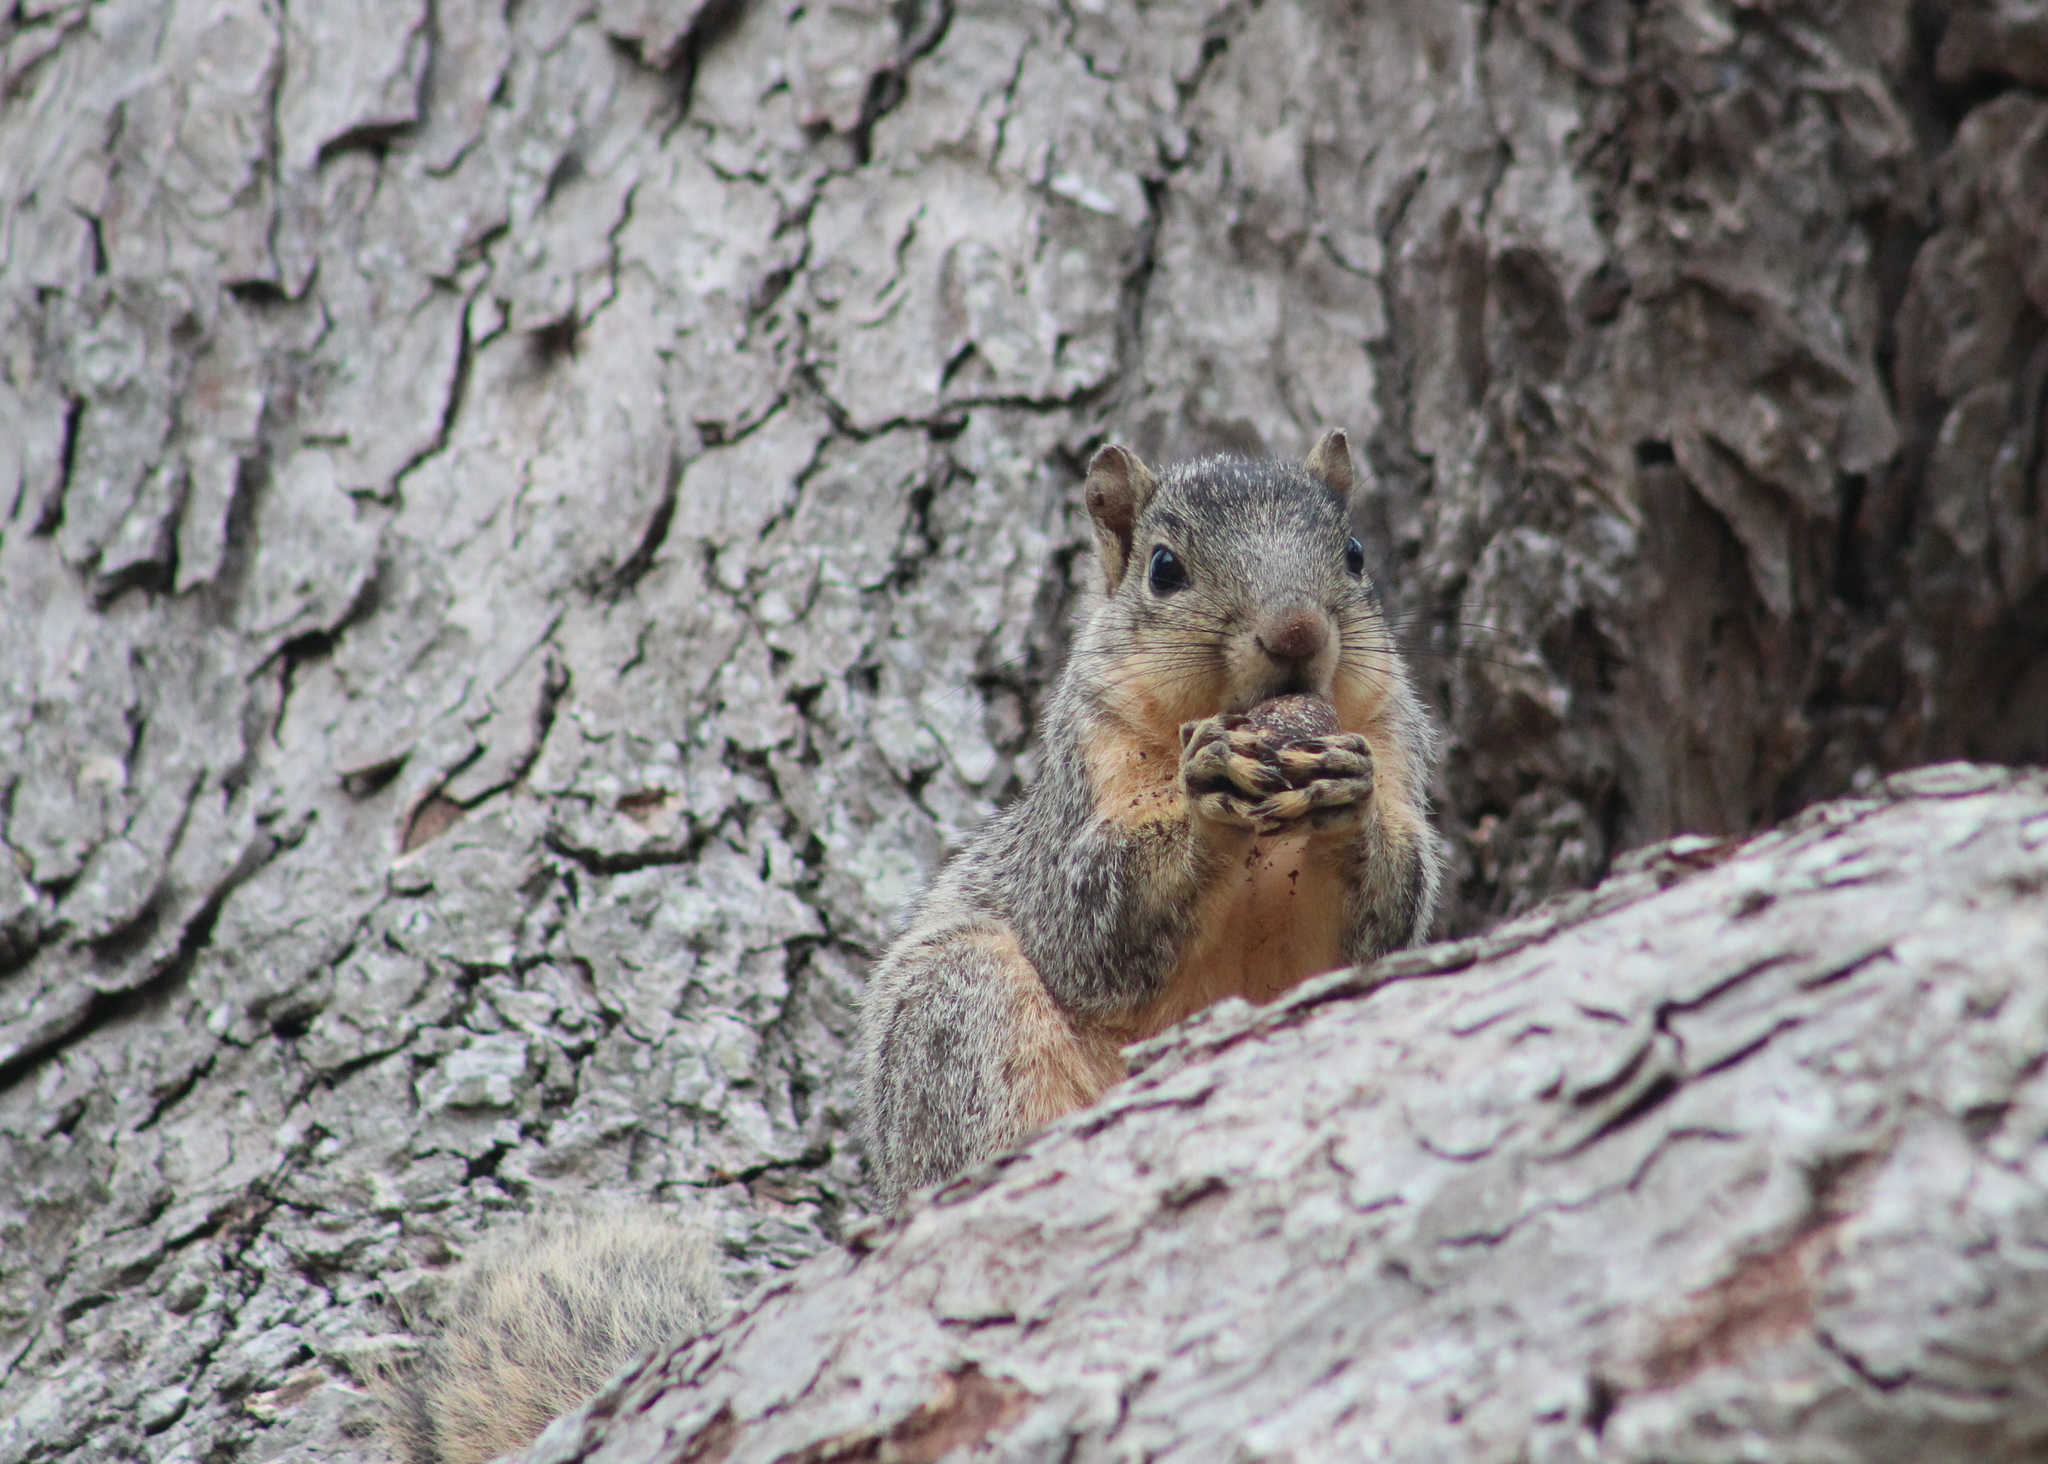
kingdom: Animalia
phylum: Chordata
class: Mammalia
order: Rodentia
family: Sciuridae
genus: Sciurus
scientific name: Sciurus niger
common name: Fox squirrel
